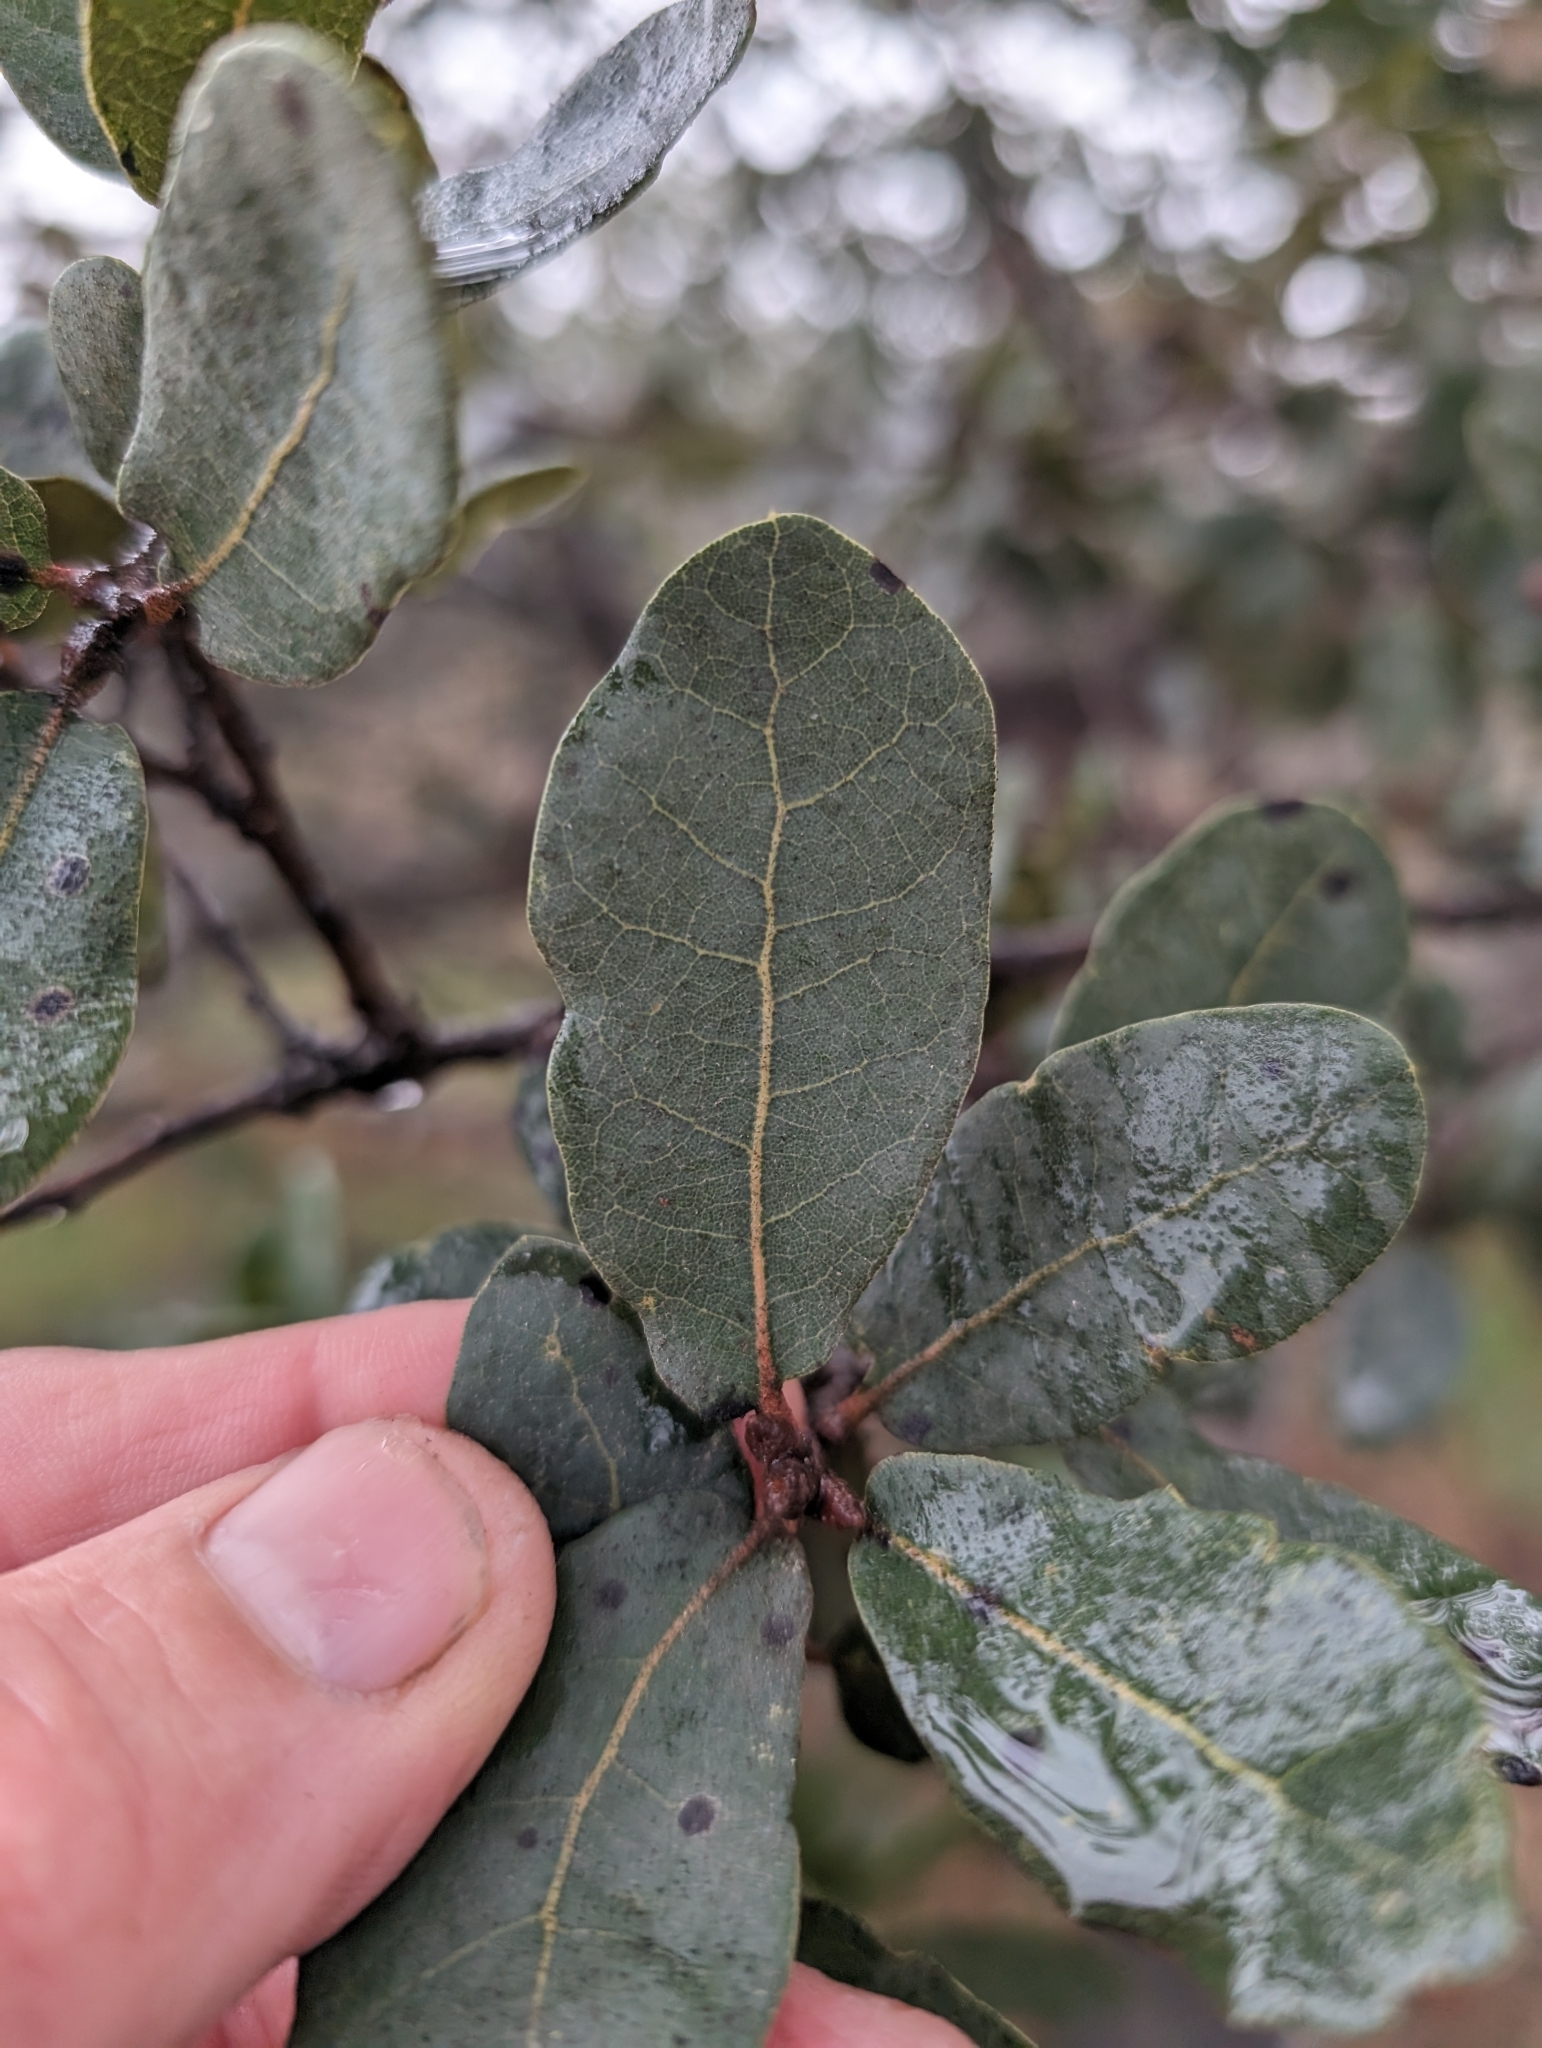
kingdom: Plantae
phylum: Tracheophyta
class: Magnoliopsida
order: Fagales
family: Fagaceae
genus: Quercus
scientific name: Quercus engelmannii
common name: Engelmann oak
